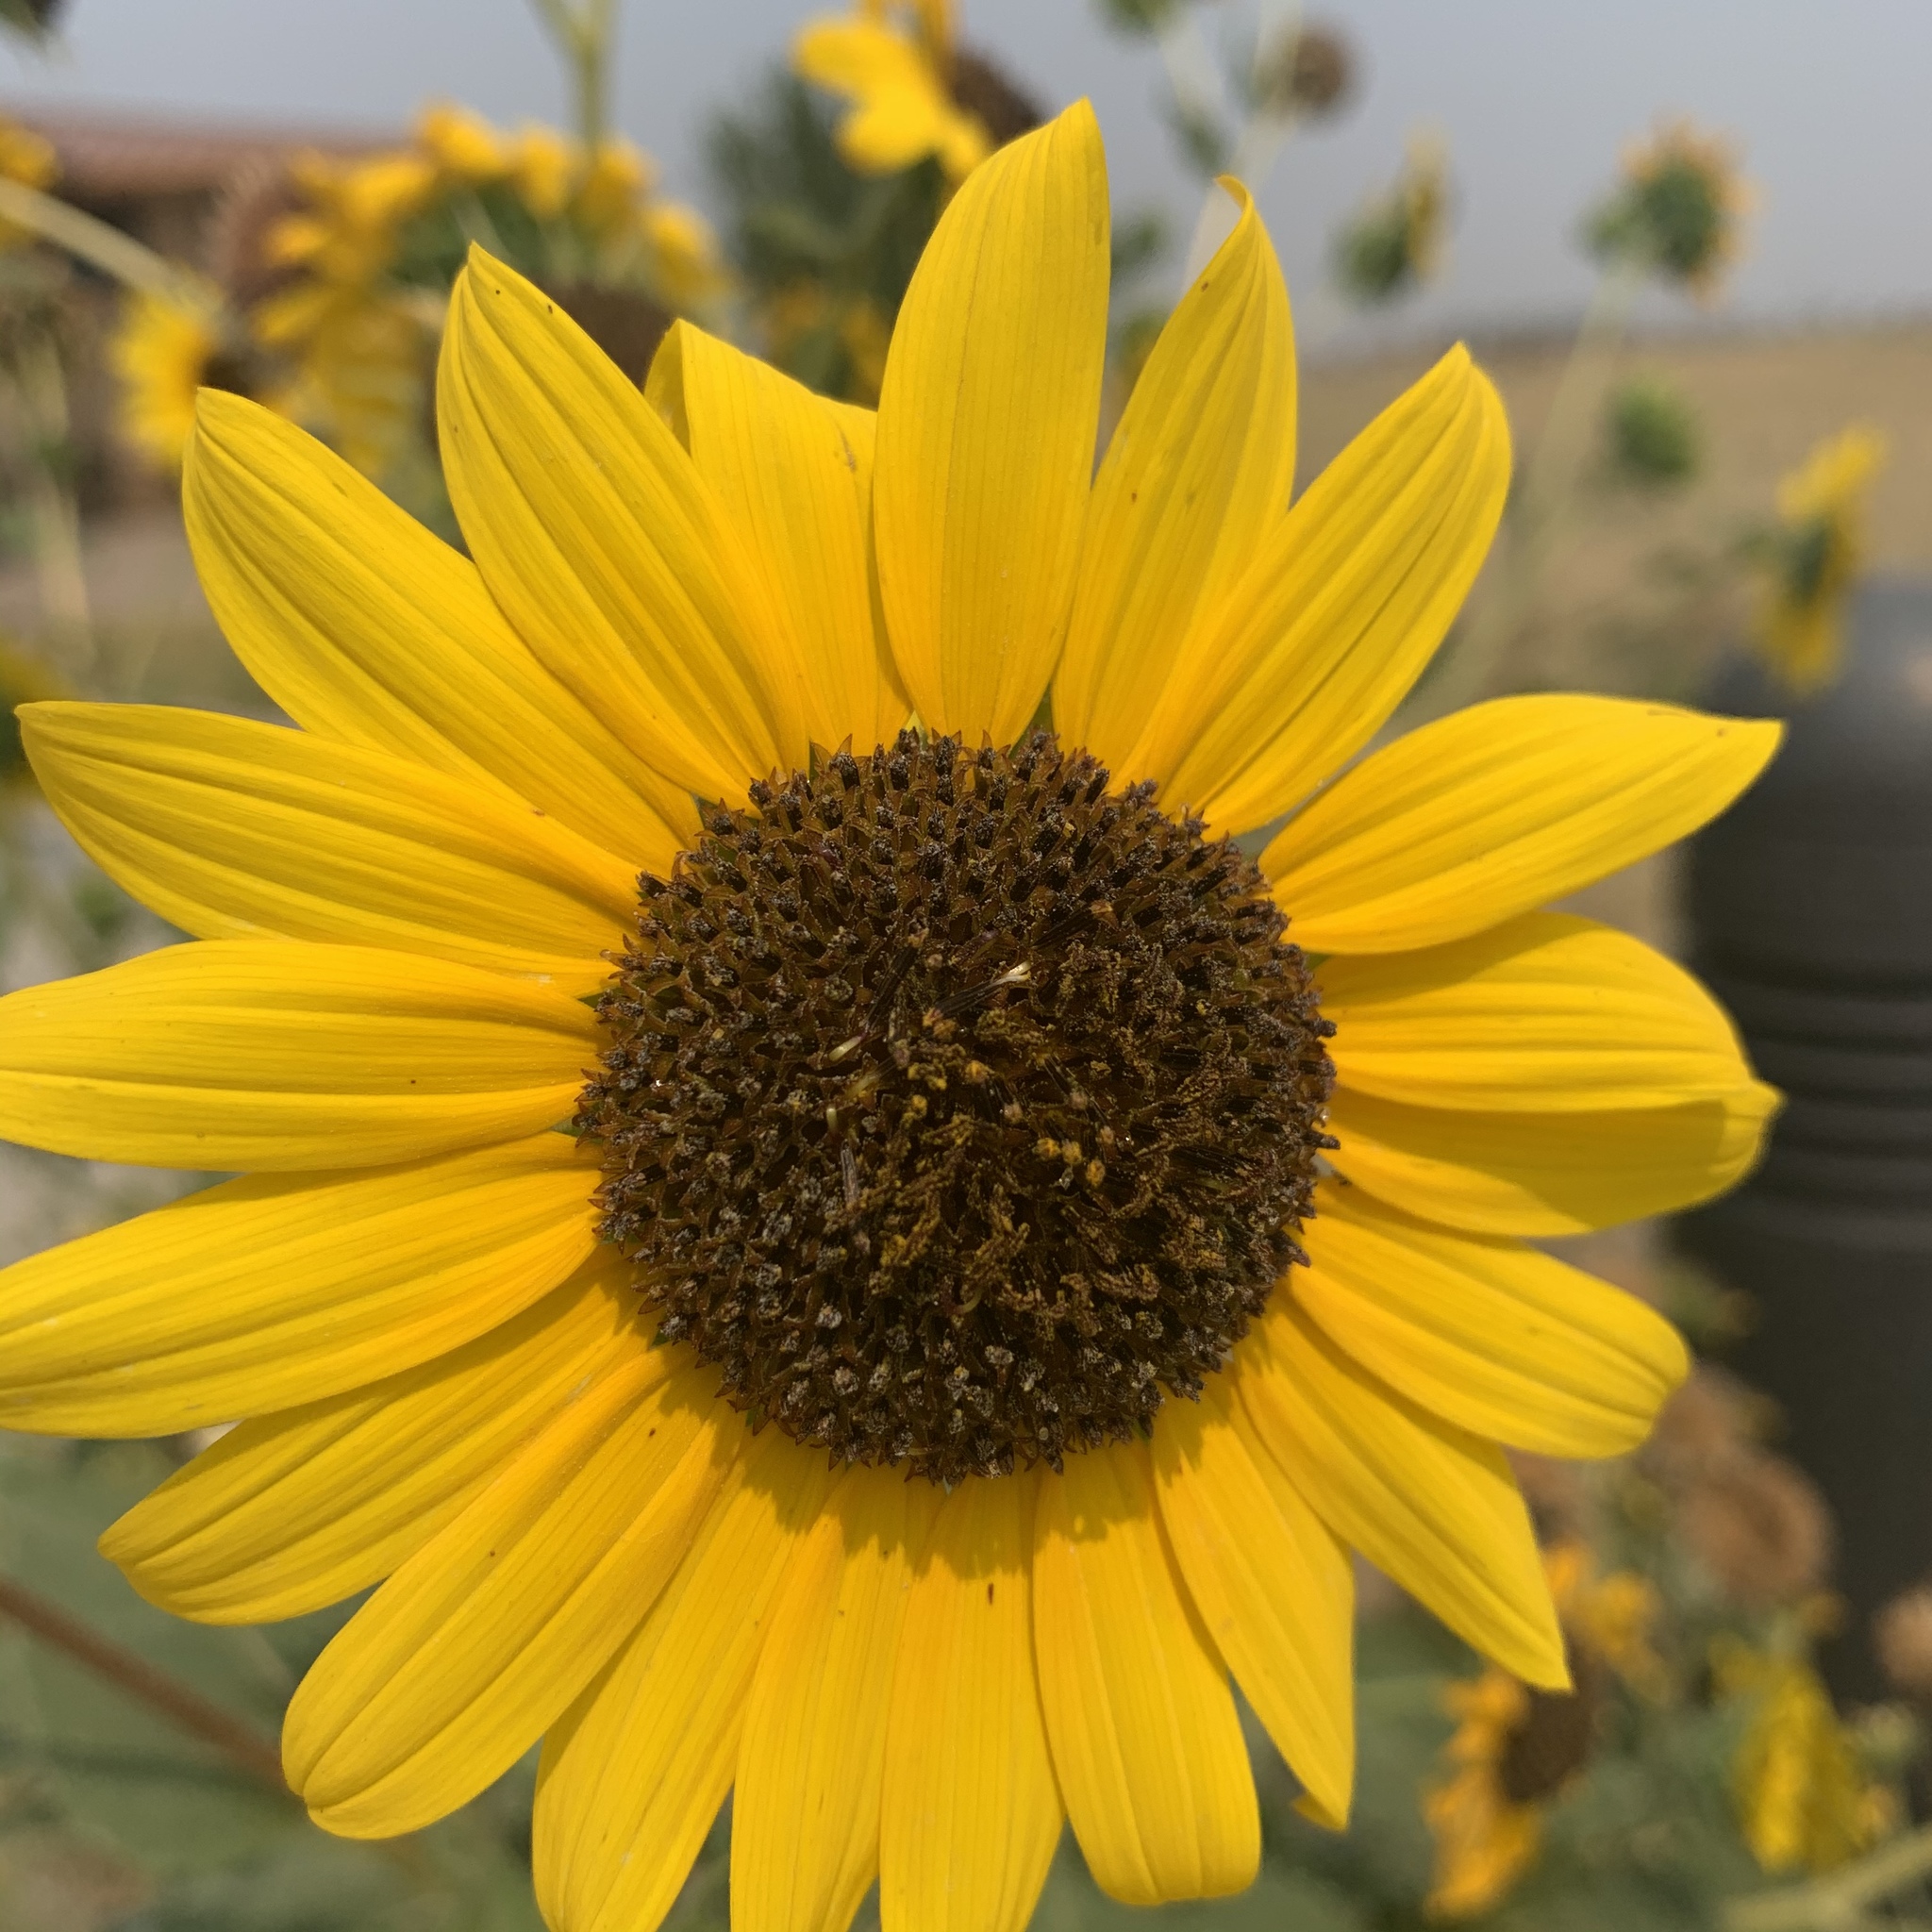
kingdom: Plantae
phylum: Tracheophyta
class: Magnoliopsida
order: Asterales
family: Asteraceae
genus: Helianthus
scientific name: Helianthus annuus
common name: Sunflower
